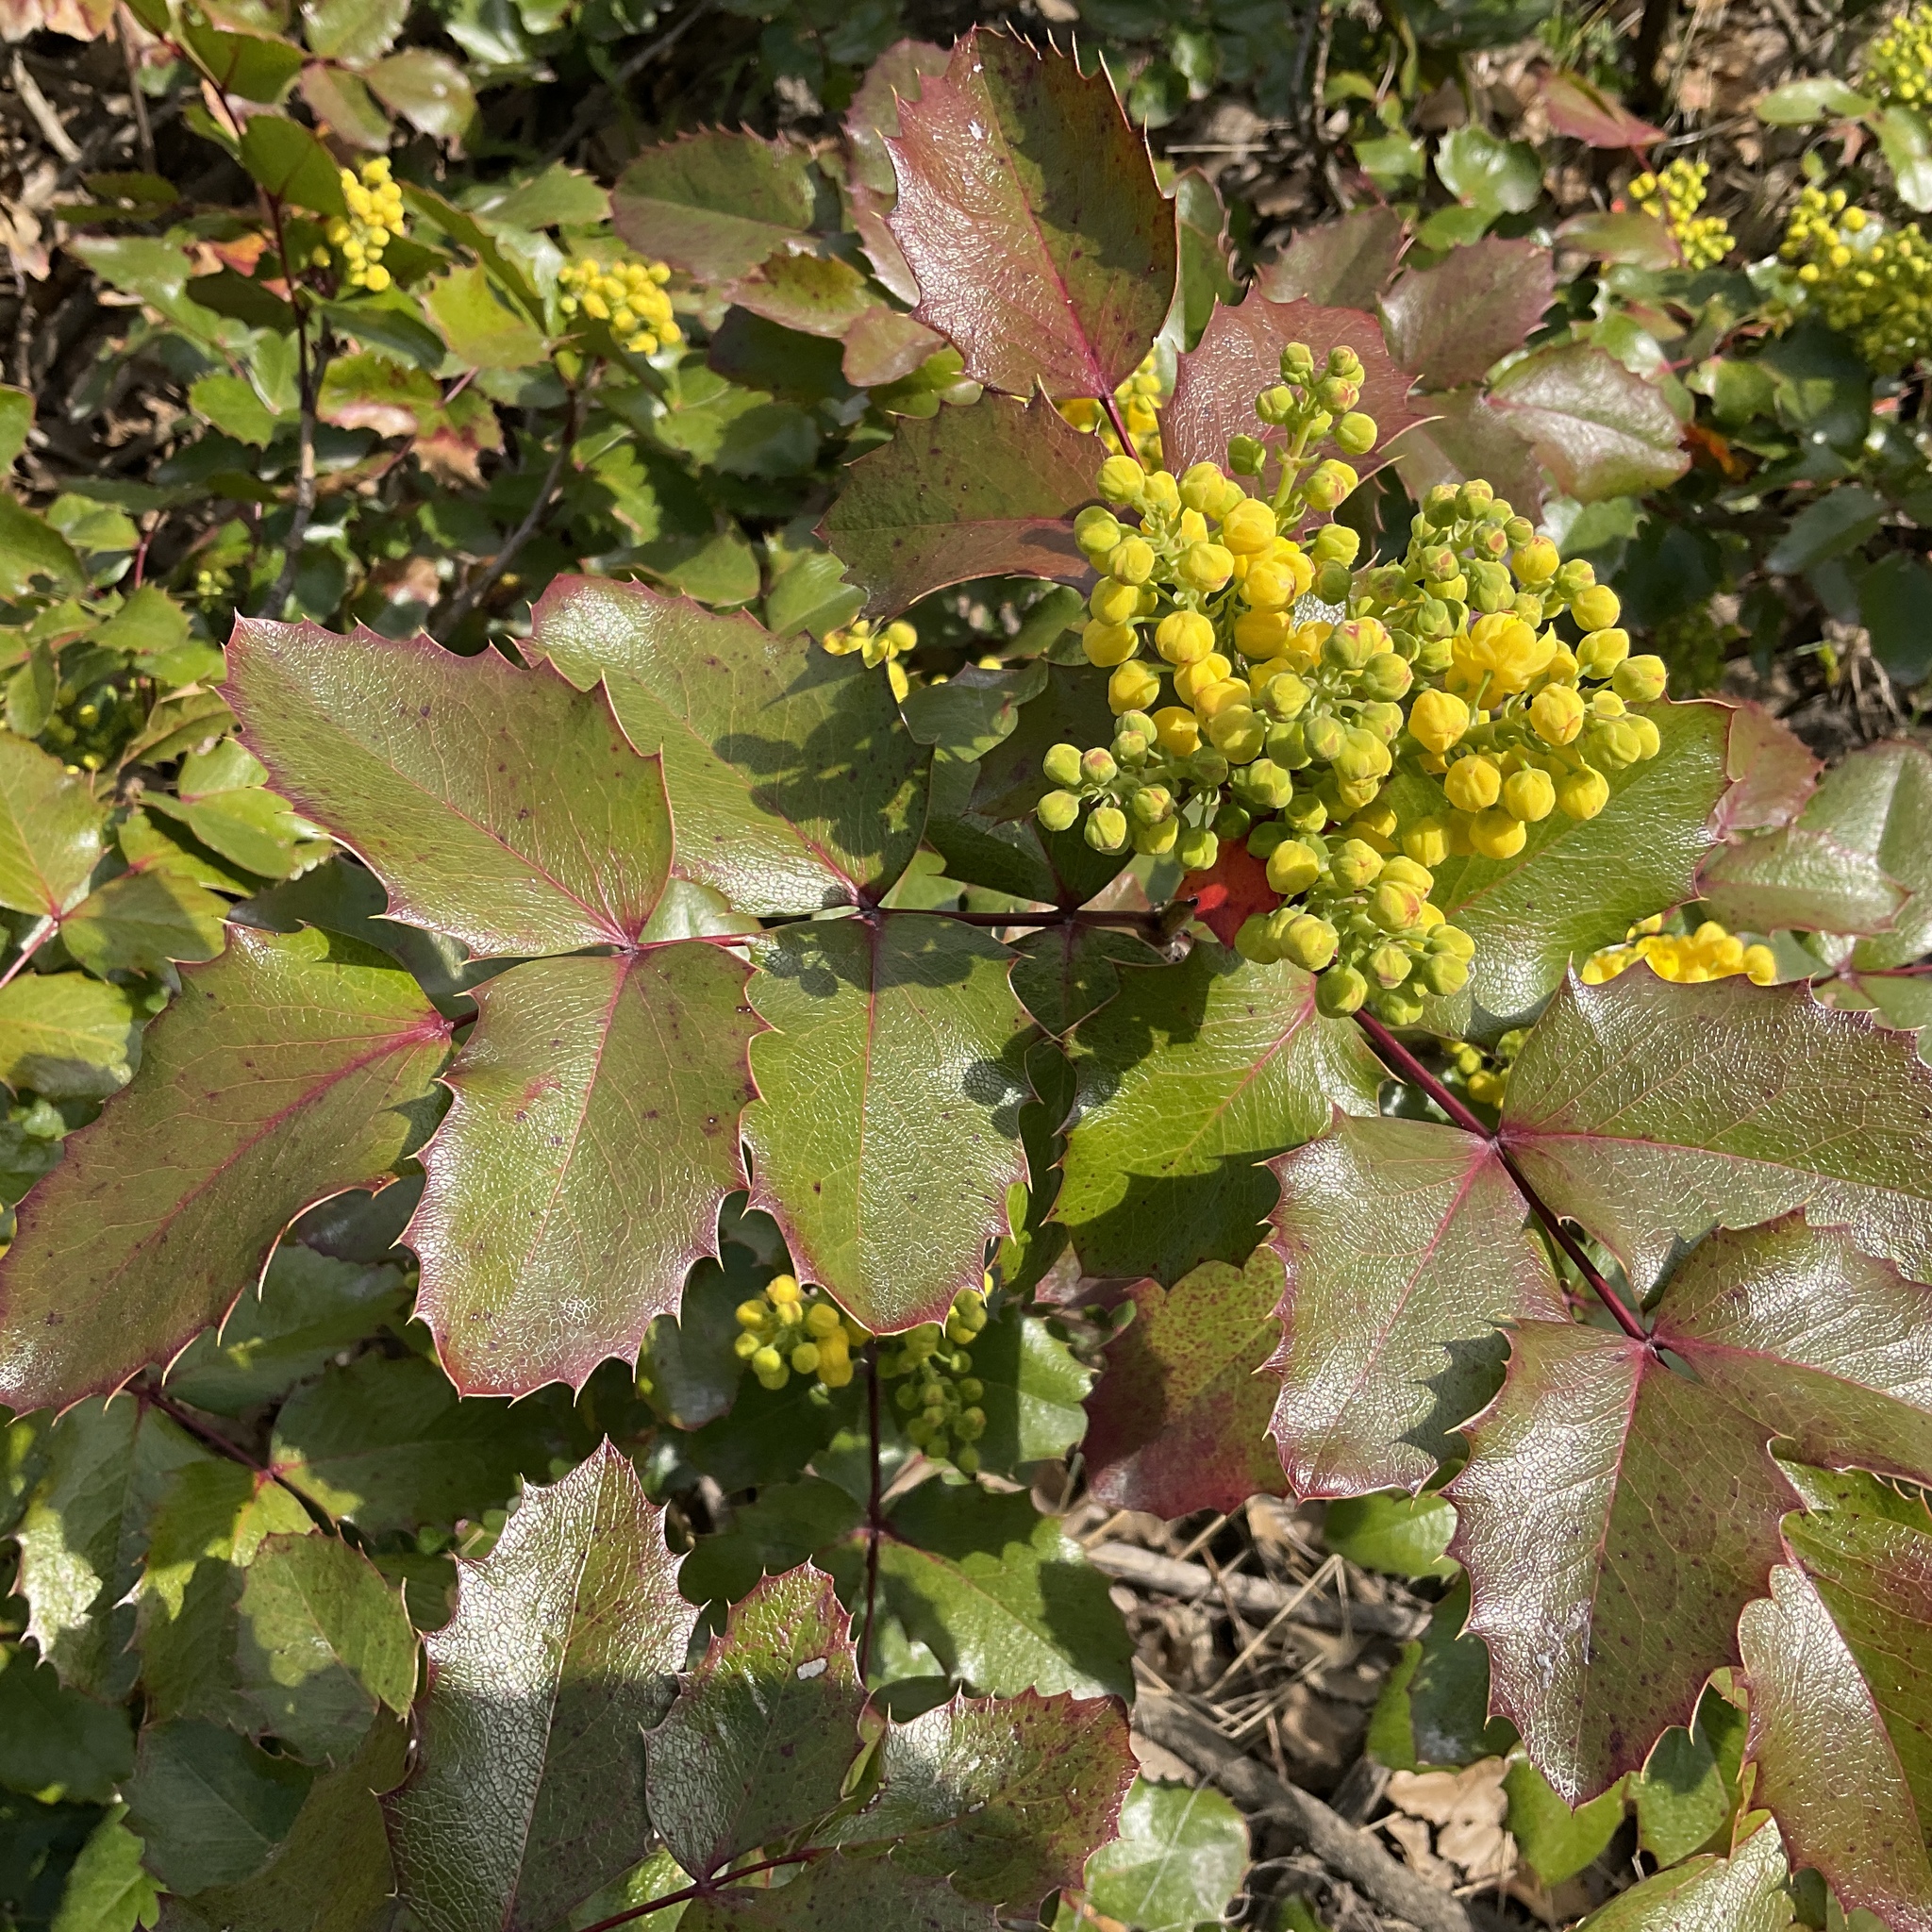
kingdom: Plantae
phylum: Tracheophyta
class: Magnoliopsida
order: Ranunculales
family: Berberidaceae
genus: Mahonia
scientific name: Mahonia aquifolium
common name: Oregon-grape
